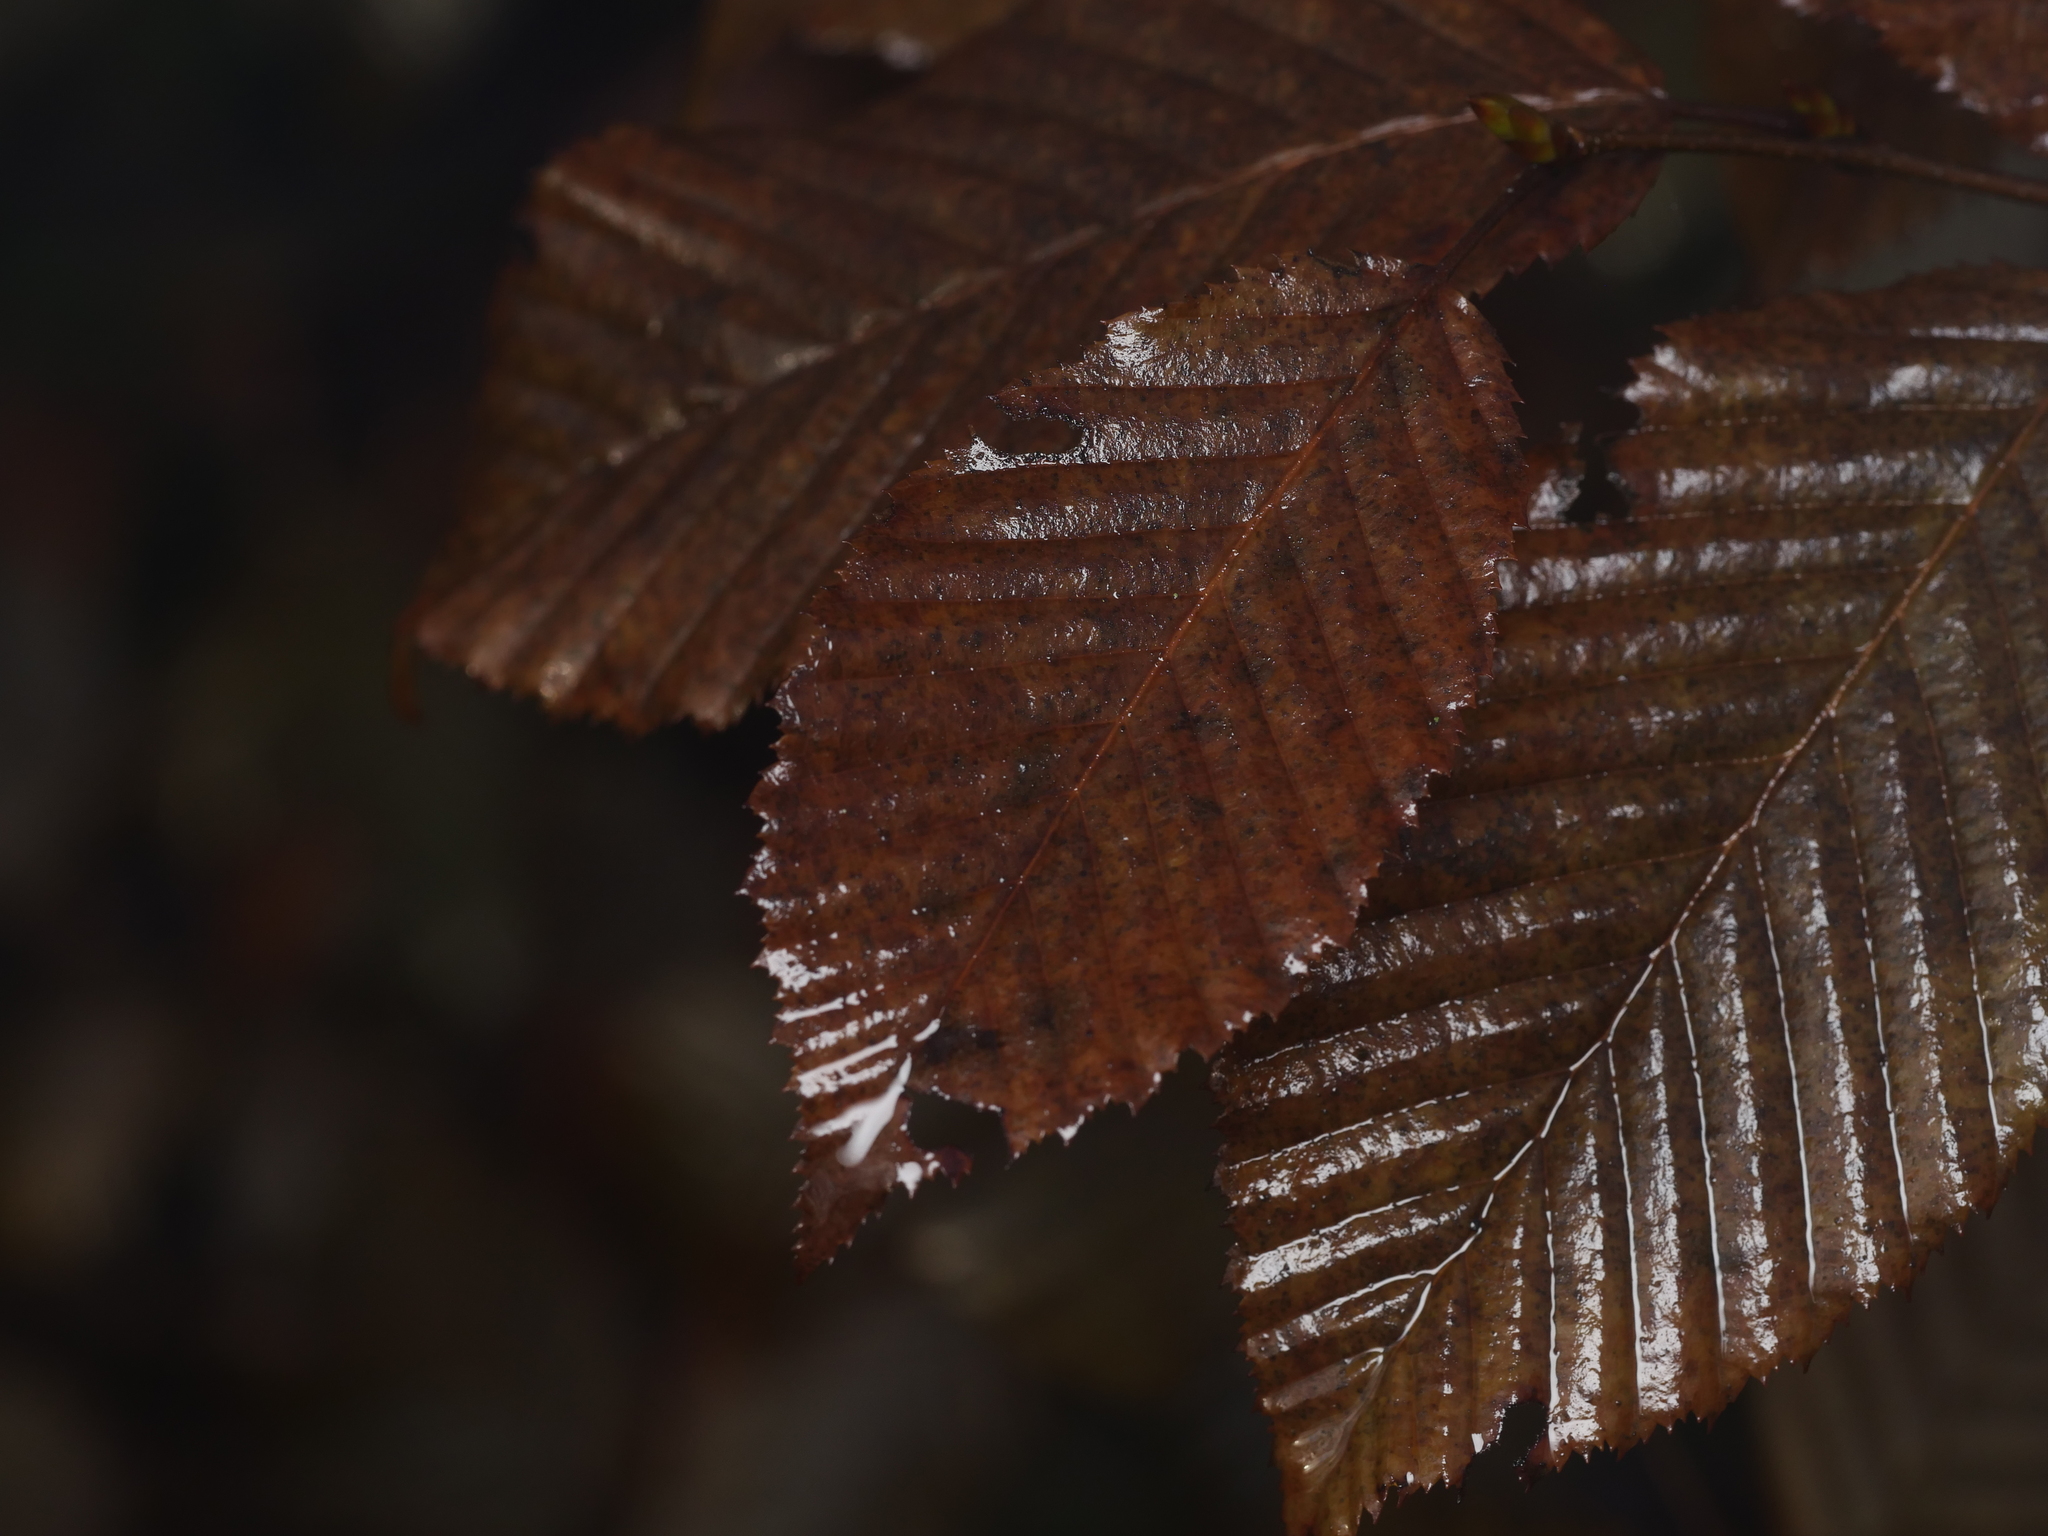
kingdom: Plantae
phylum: Tracheophyta
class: Magnoliopsida
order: Fagales
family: Betulaceae
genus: Carpinus
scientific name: Carpinus betulus
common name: Hornbeam
